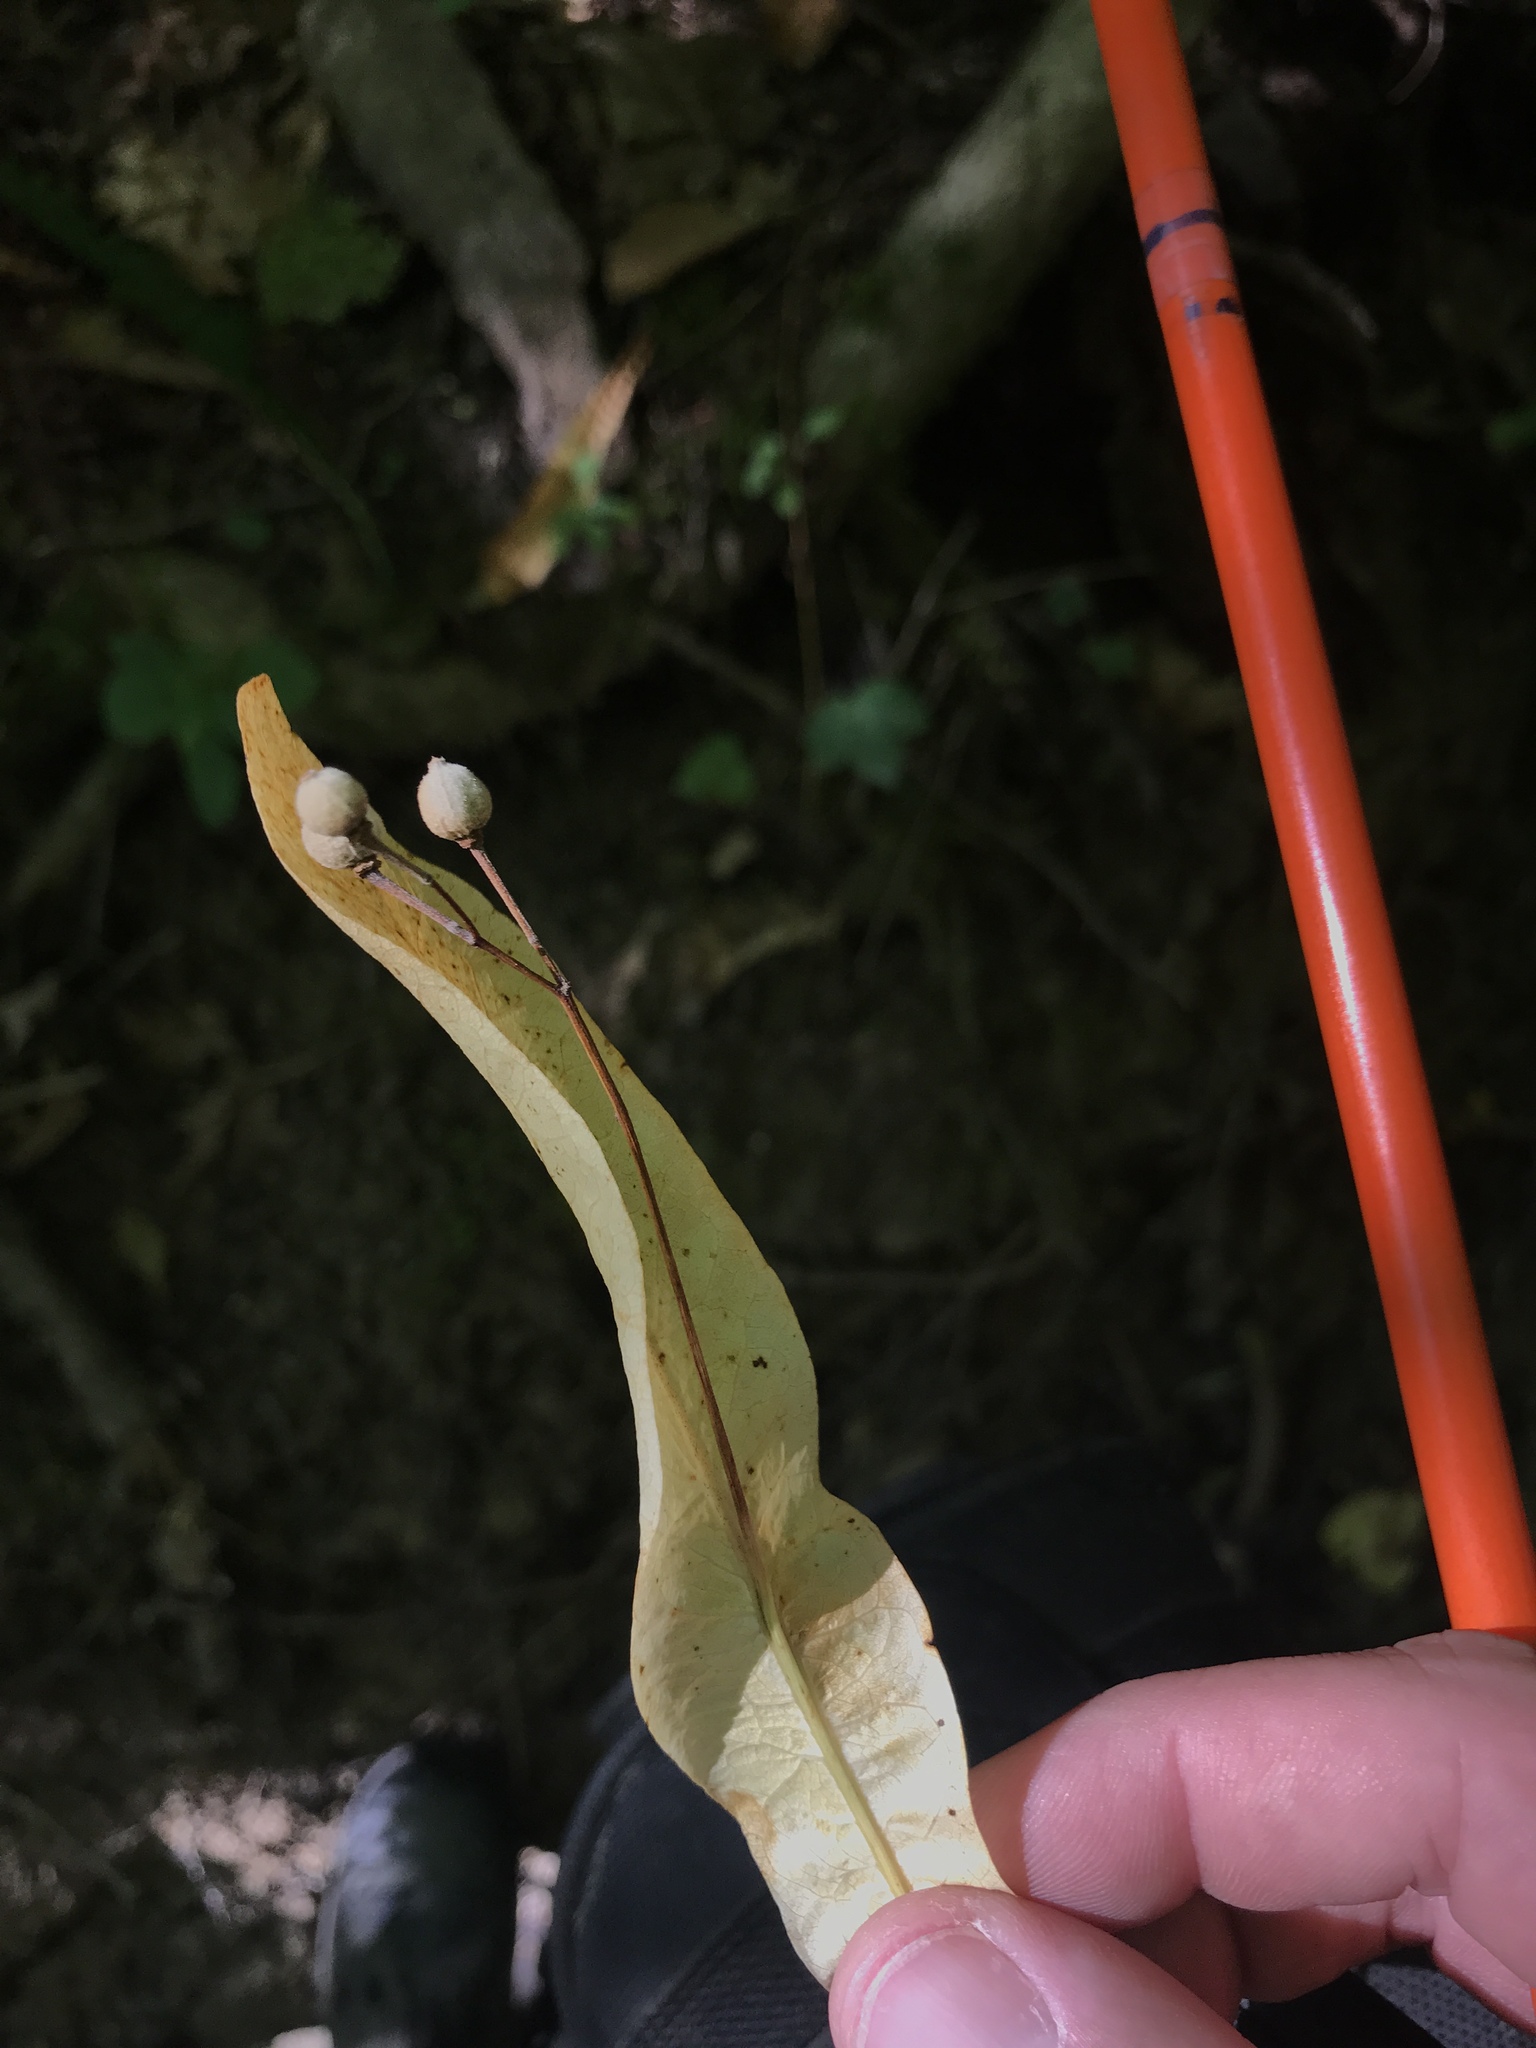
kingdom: Plantae
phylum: Tracheophyta
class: Magnoliopsida
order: Malvales
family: Malvaceae
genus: Tilia
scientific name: Tilia americana
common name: Basswood
